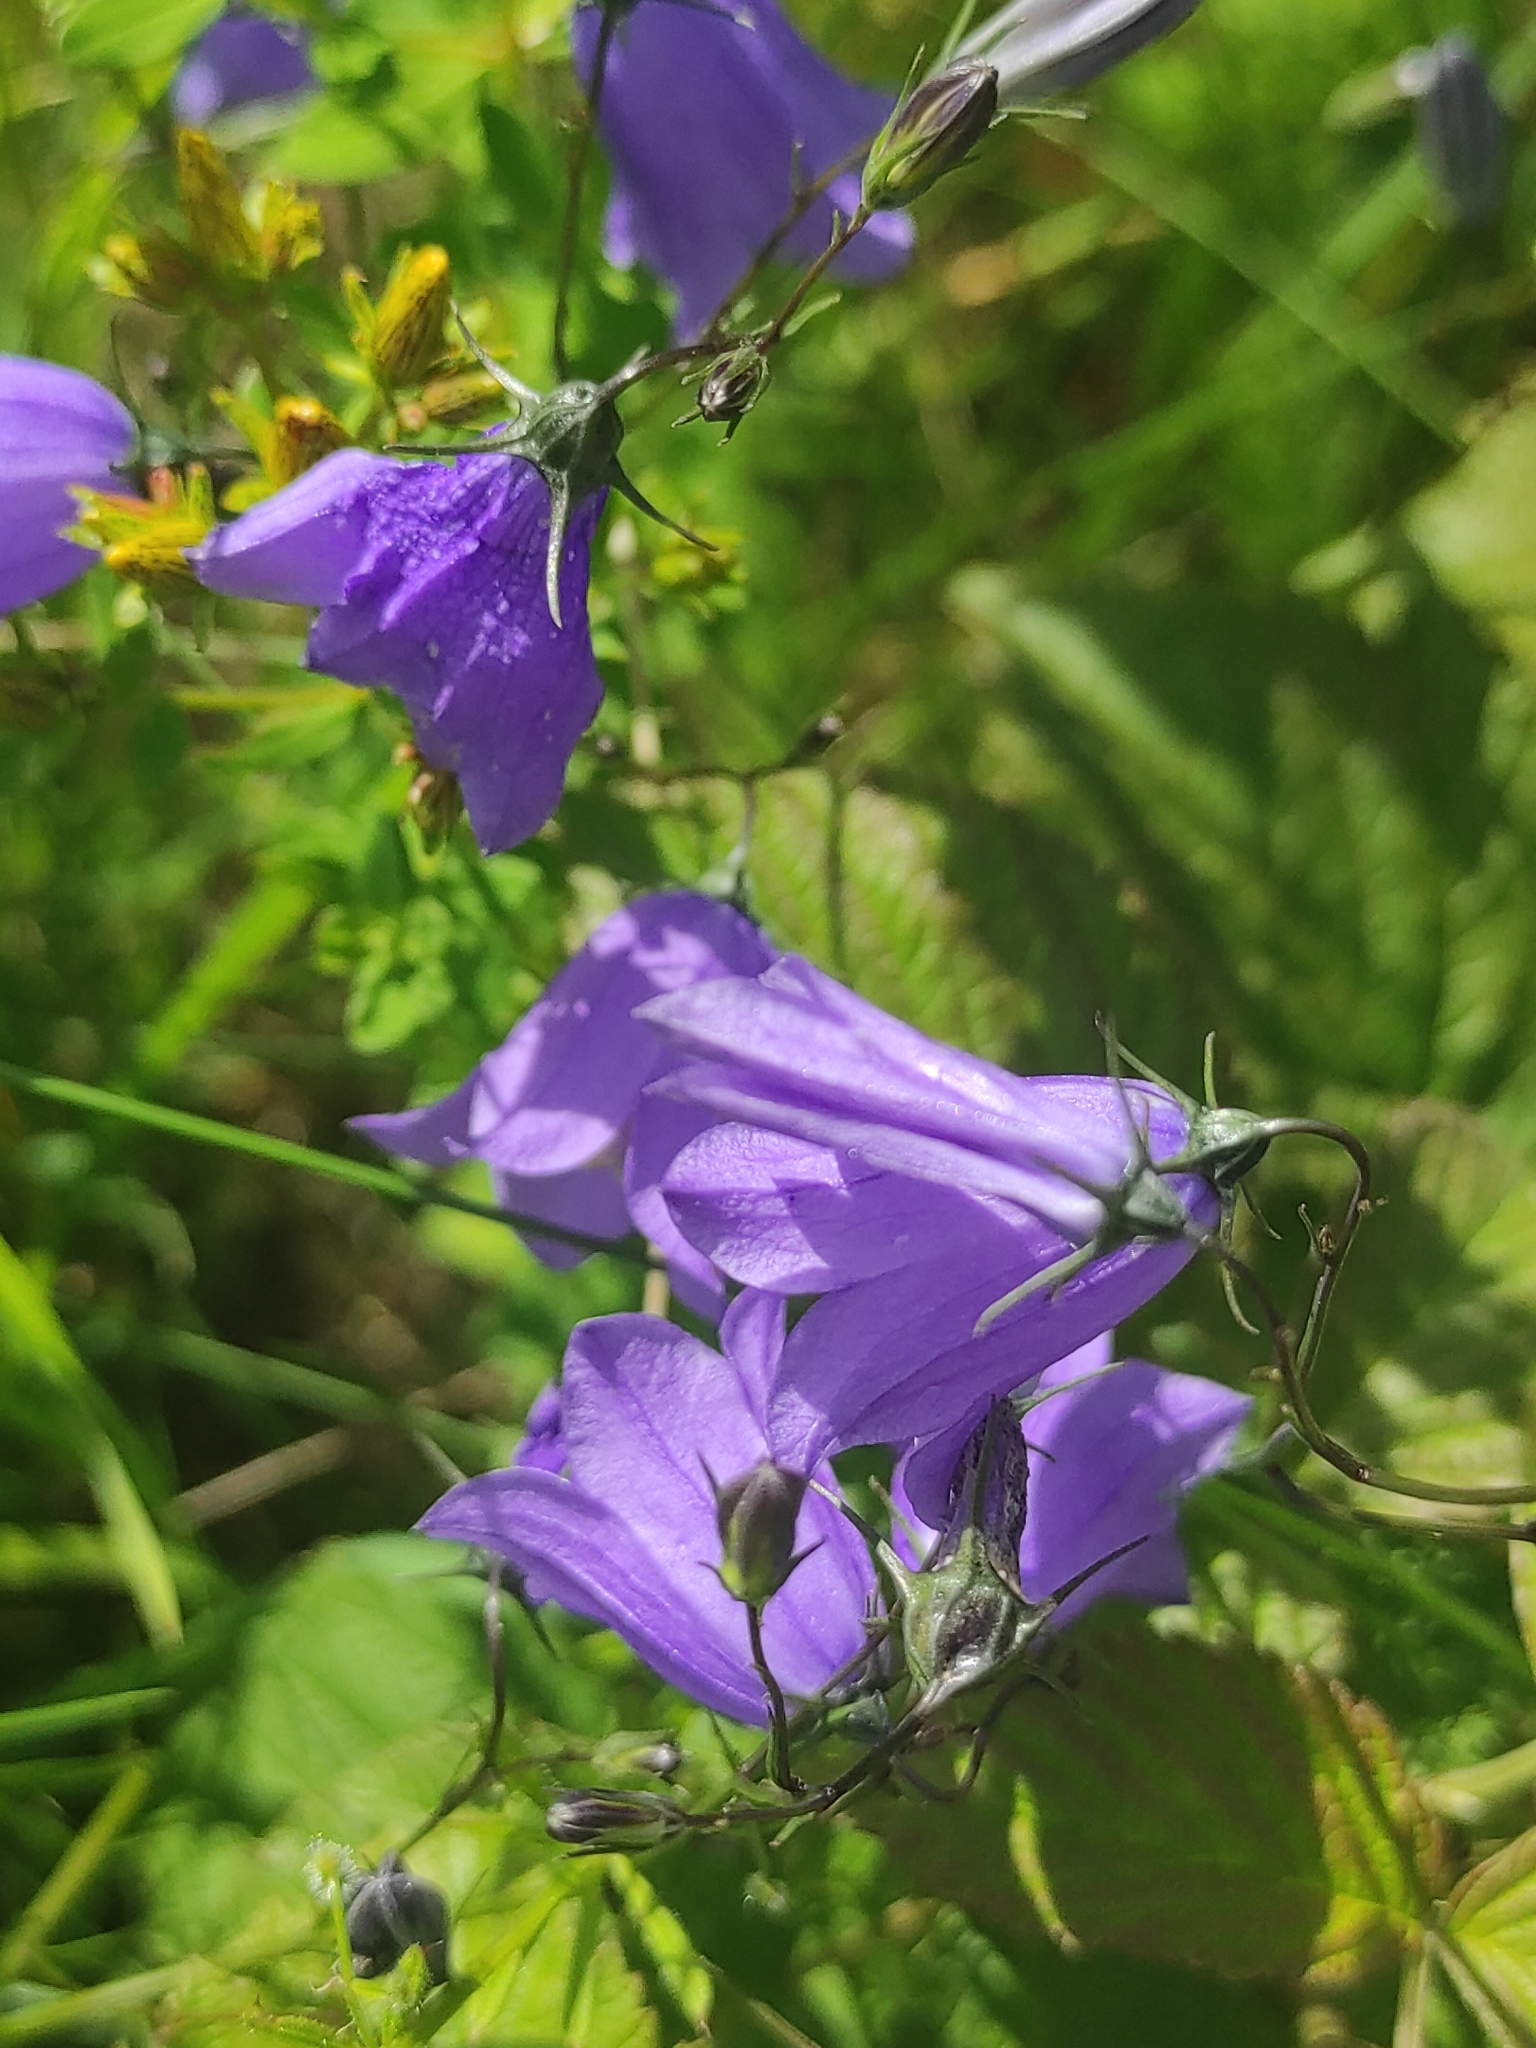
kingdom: Plantae
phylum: Tracheophyta
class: Magnoliopsida
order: Asterales
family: Campanulaceae
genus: Campanula
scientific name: Campanula rotundifolia
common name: Harebell
